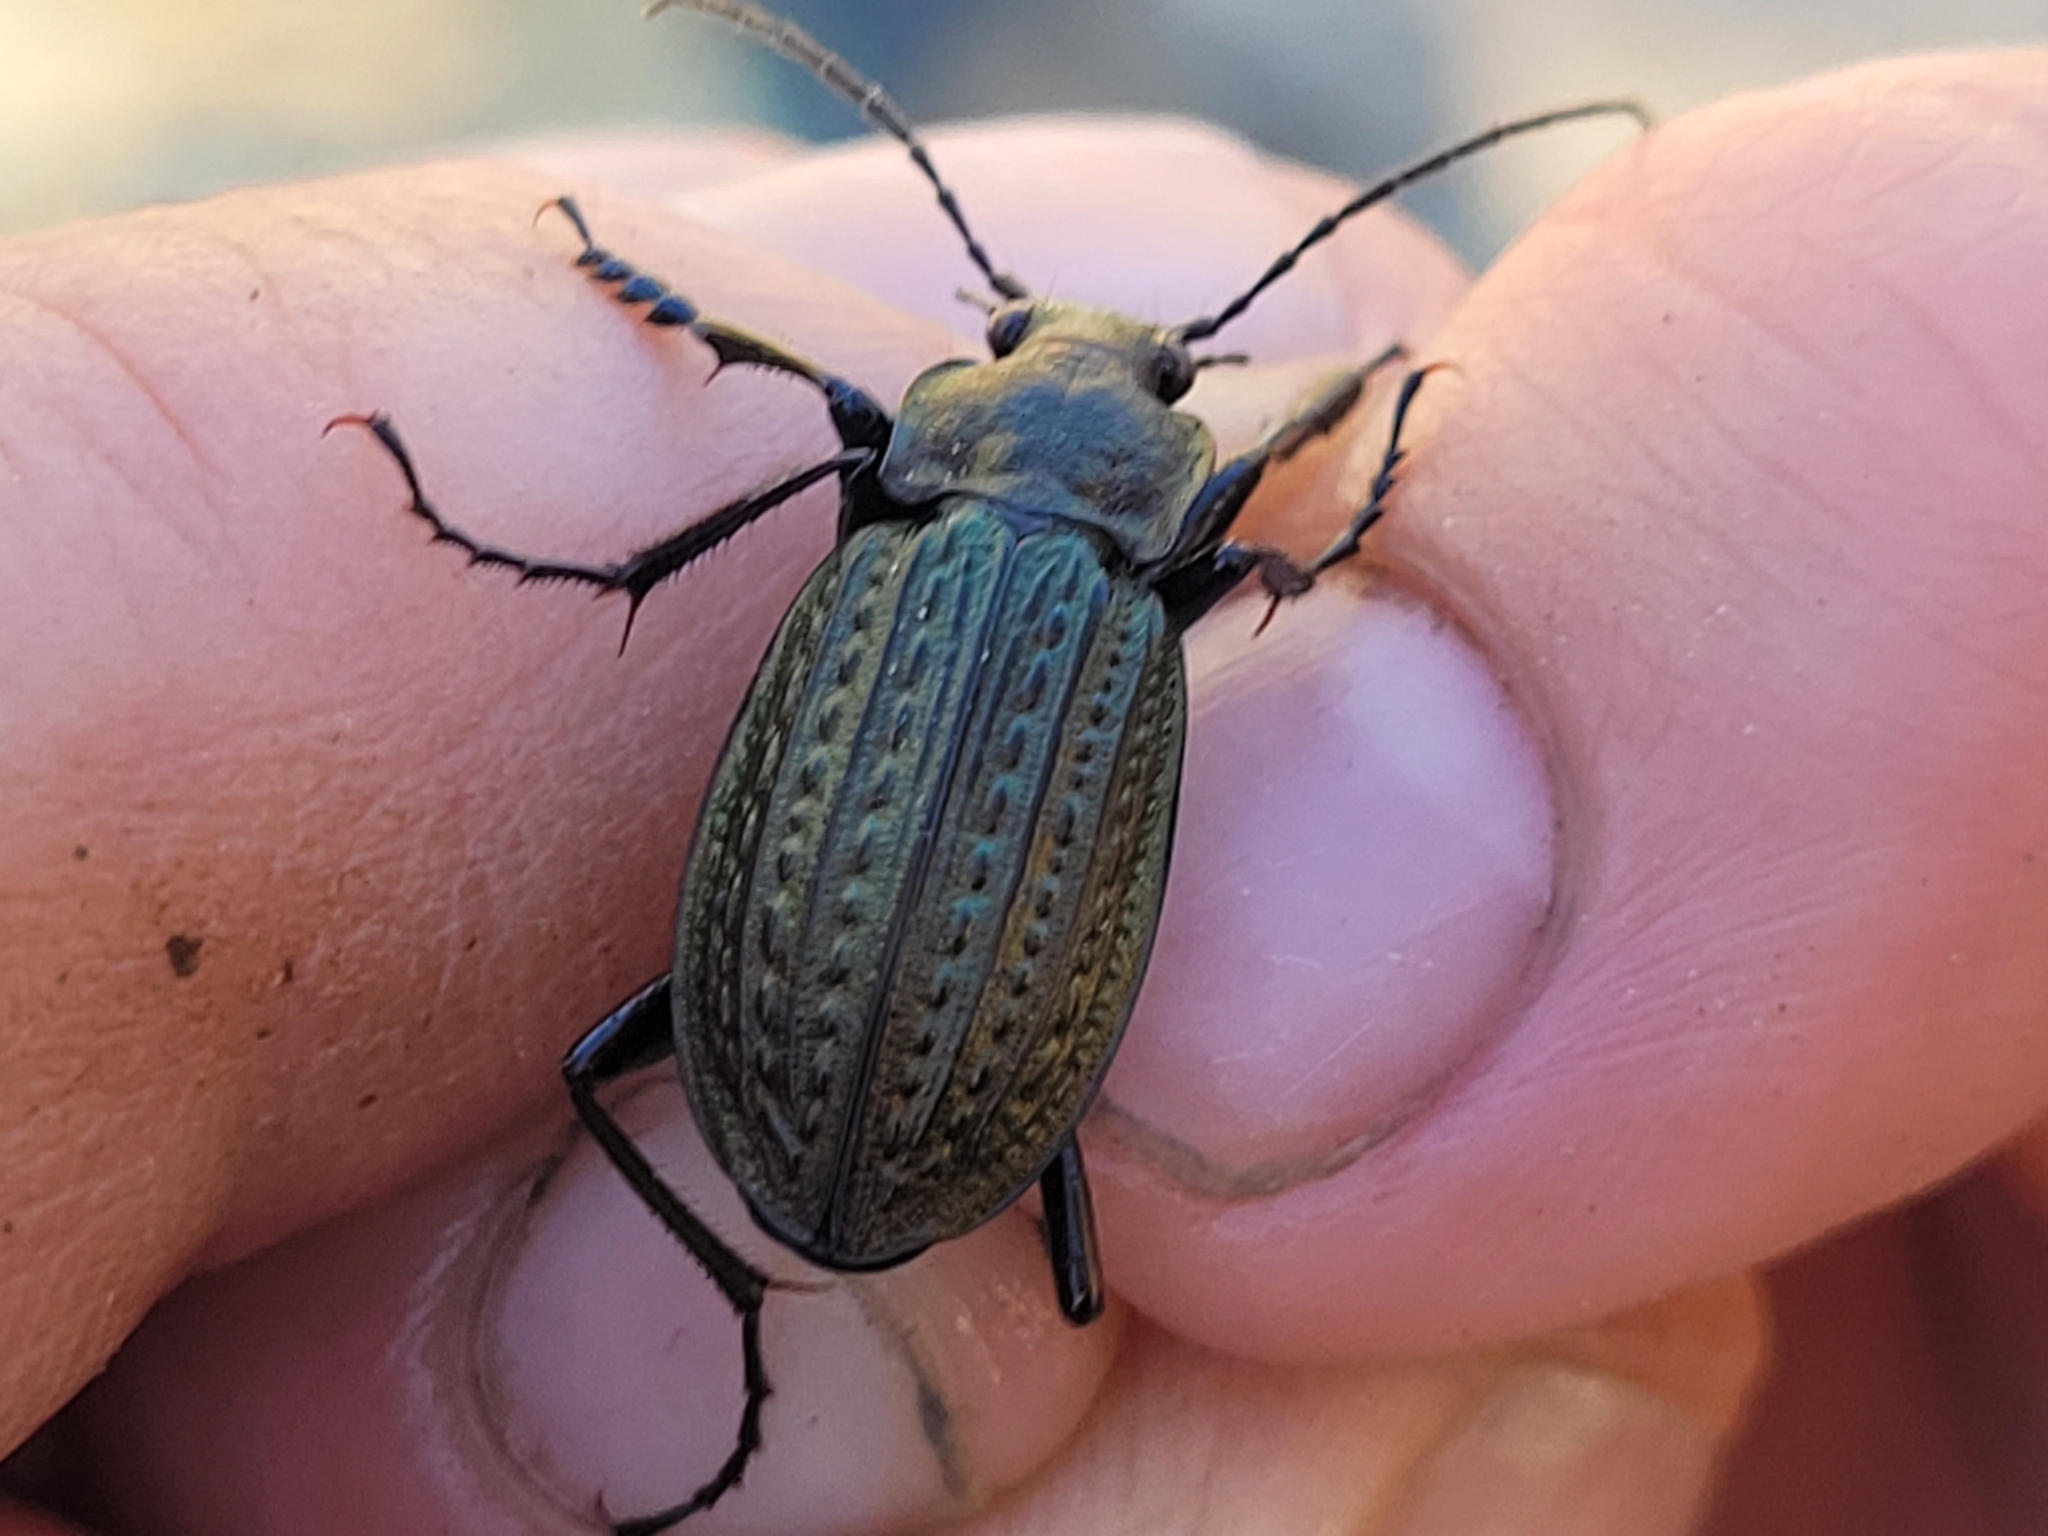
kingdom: Animalia
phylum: Arthropoda
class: Insecta
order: Coleoptera
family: Carabidae
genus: Carabus
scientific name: Carabus granulatus
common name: Granulate ground beetle
